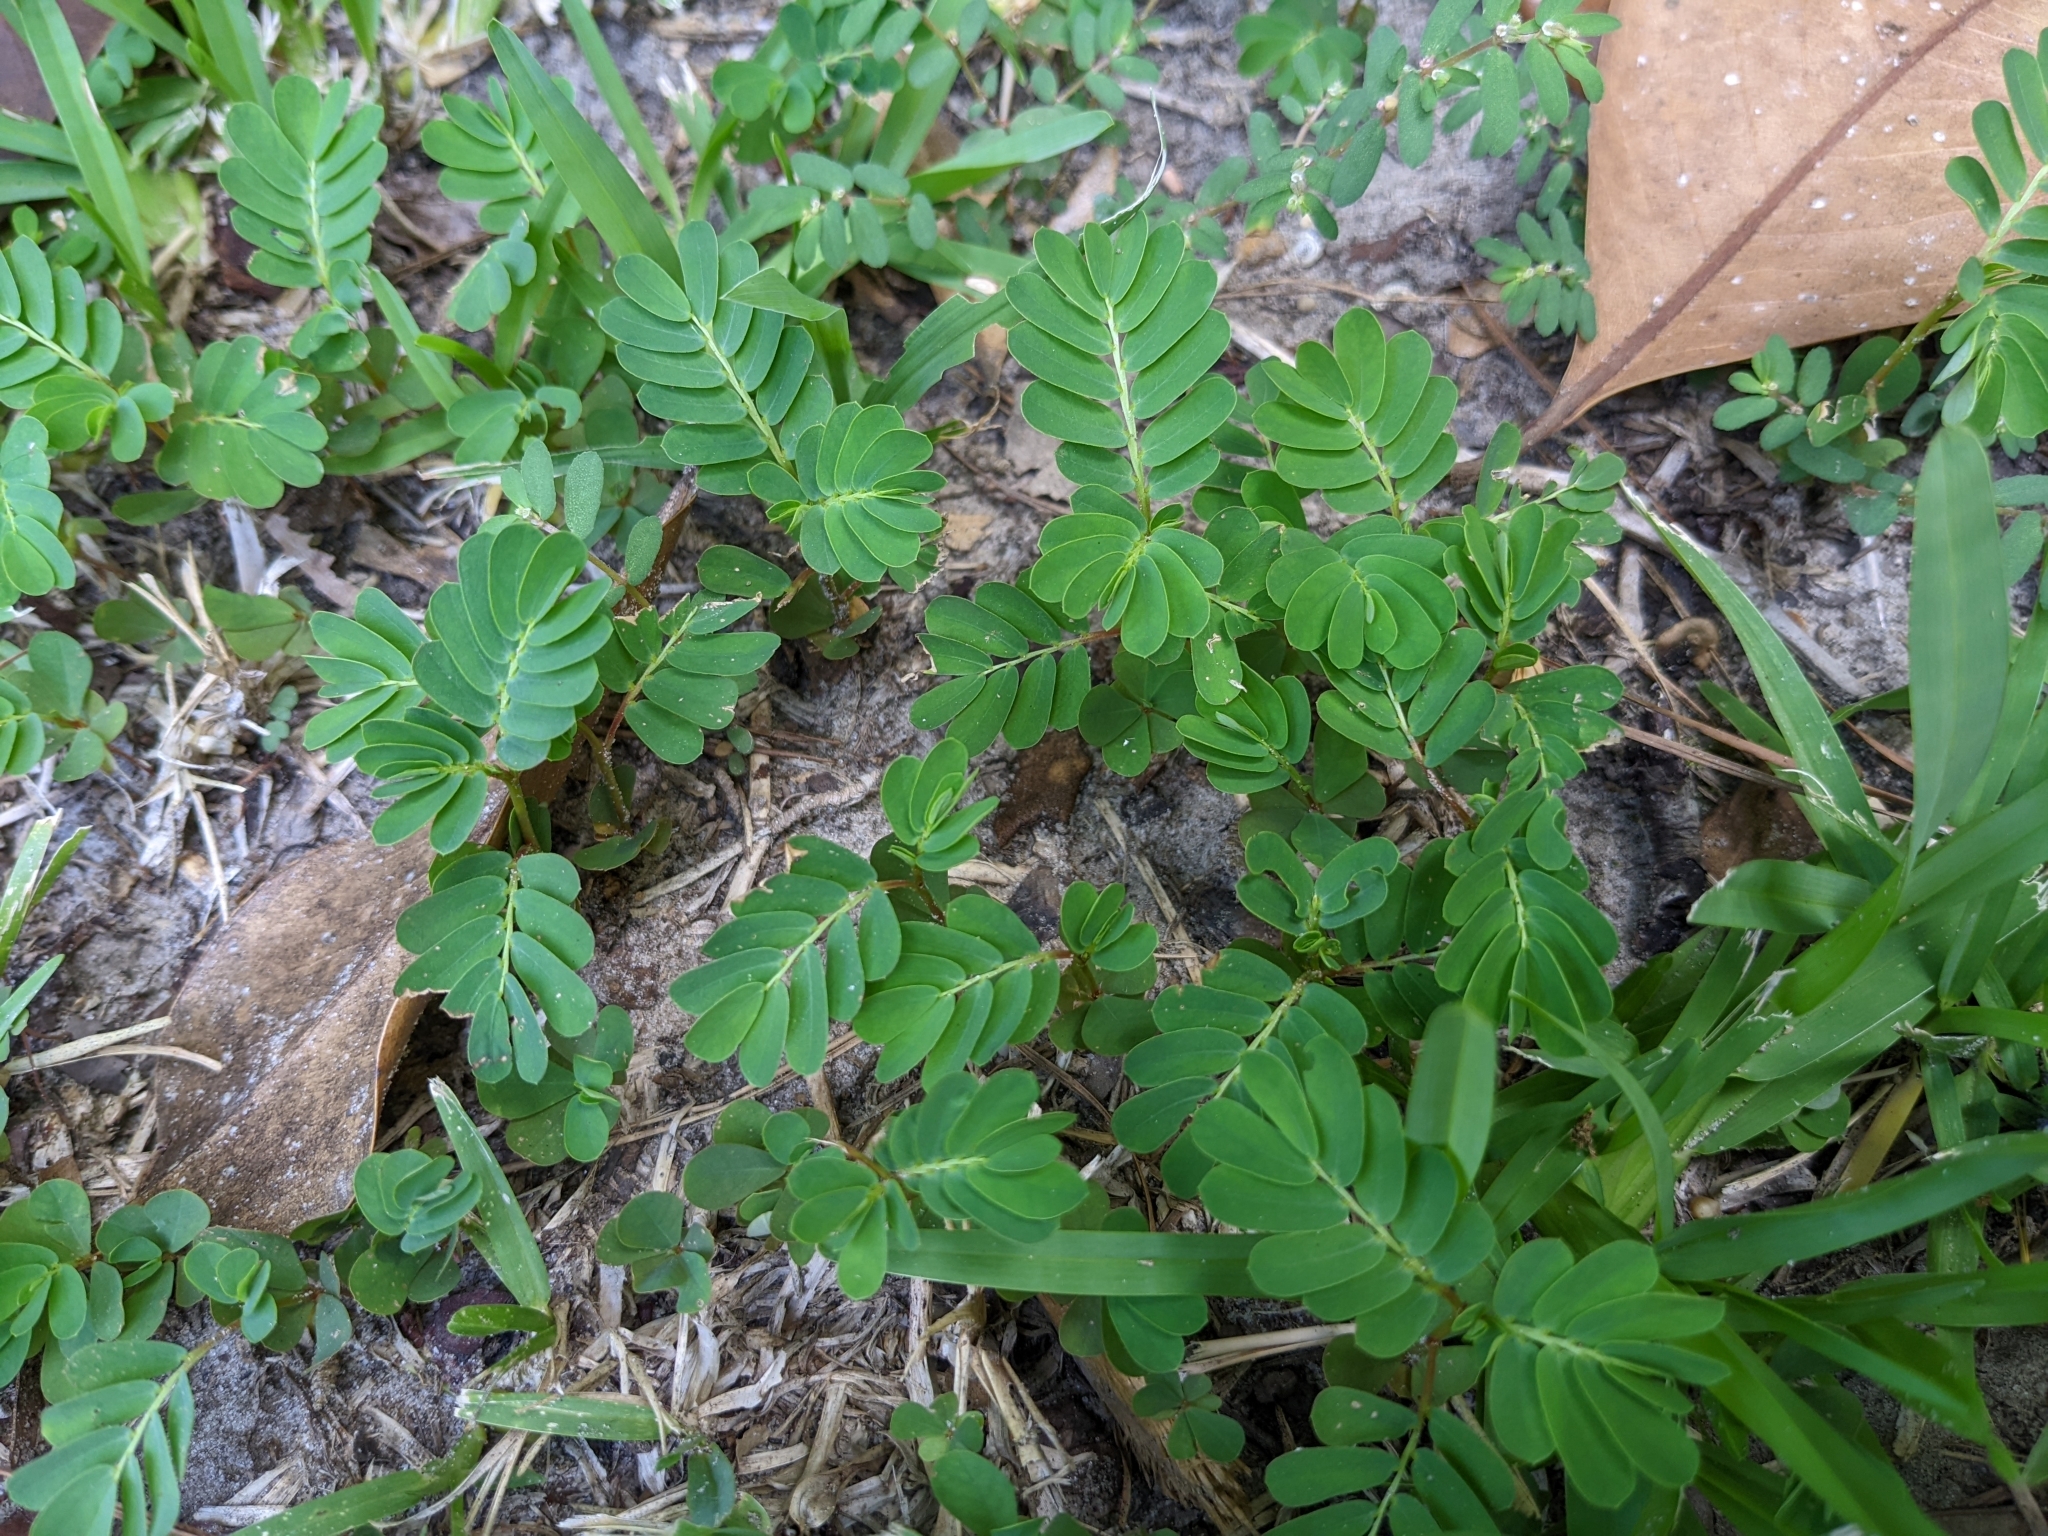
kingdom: Plantae
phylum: Tracheophyta
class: Magnoliopsida
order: Malpighiales
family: Phyllanthaceae
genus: Phyllanthus
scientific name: Phyllanthus urinaria
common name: Chamber bitter
